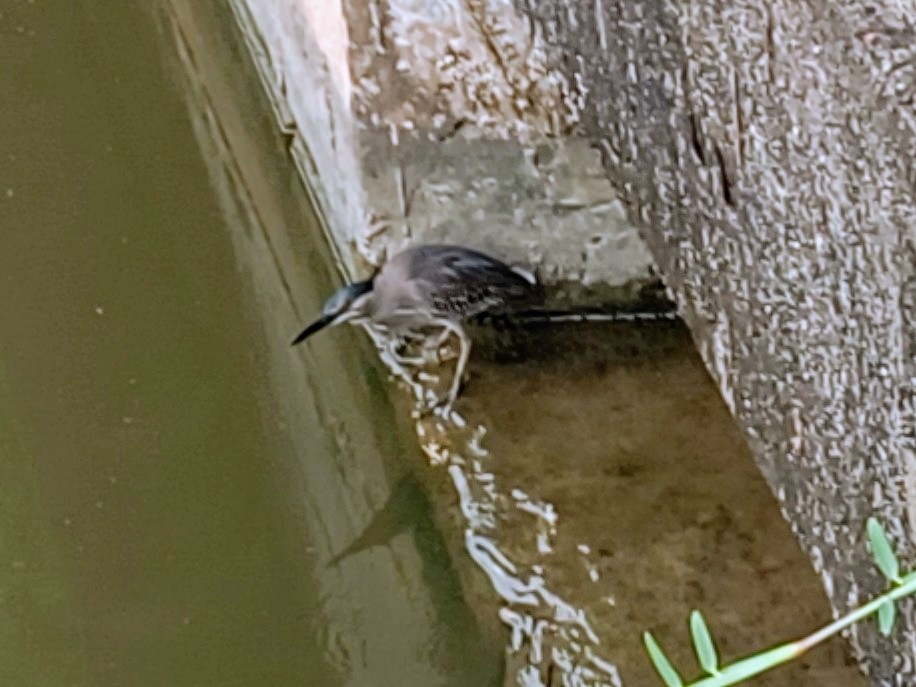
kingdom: Animalia
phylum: Chordata
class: Aves
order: Pelecaniformes
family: Ardeidae
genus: Butorides
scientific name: Butorides striata
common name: Striated heron
